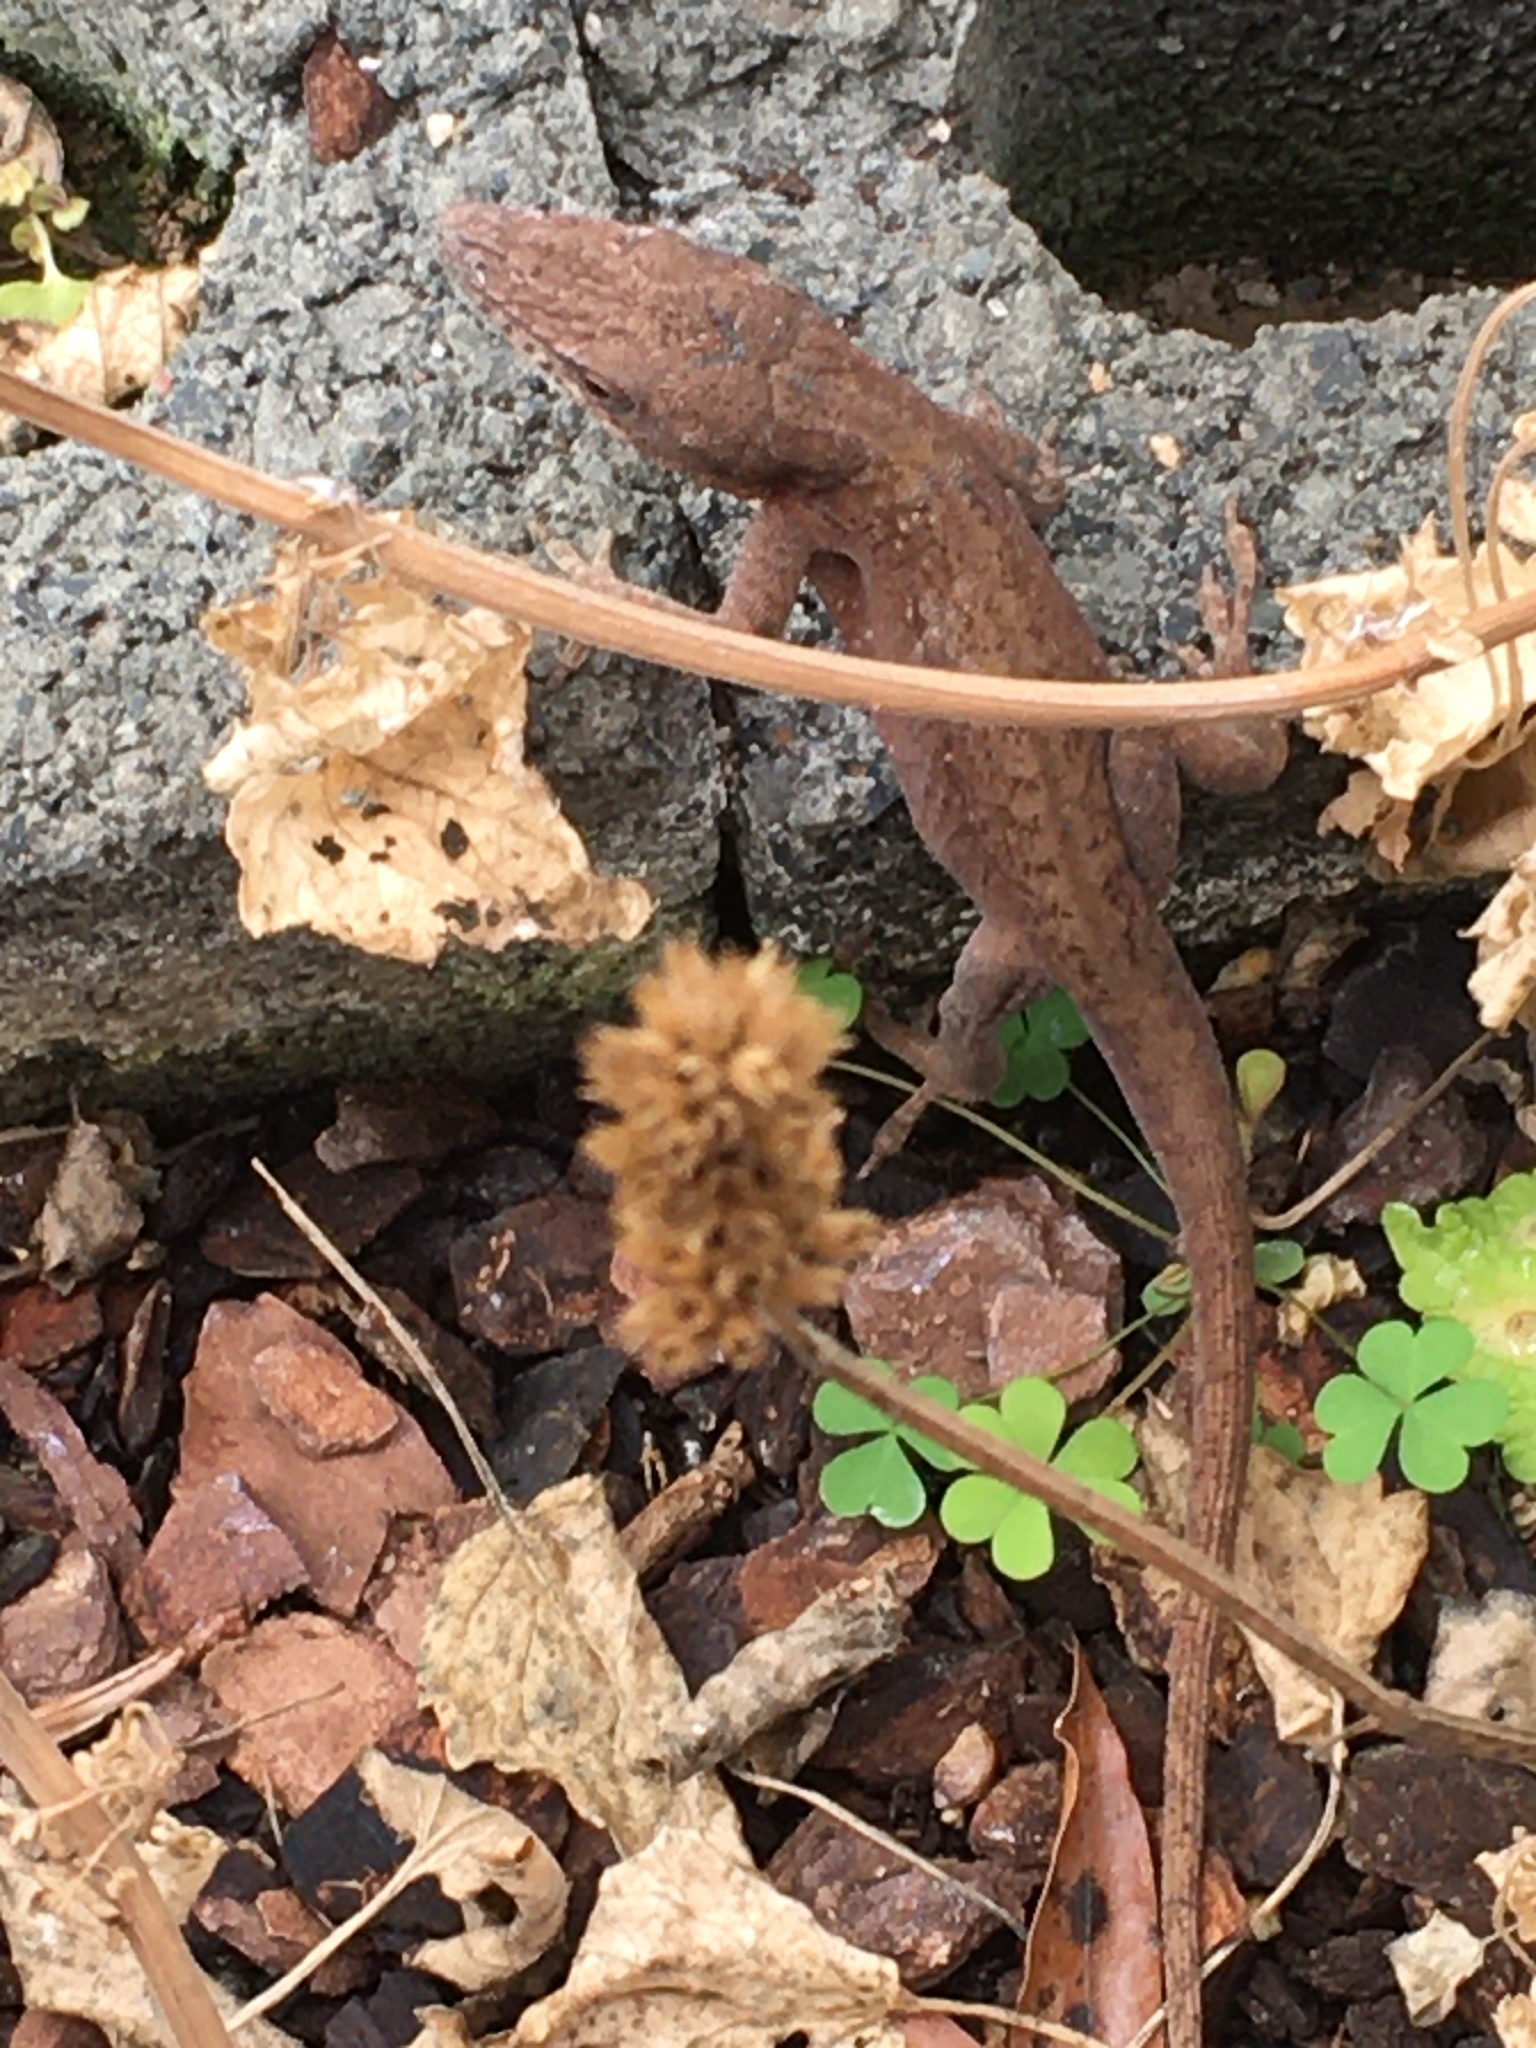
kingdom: Animalia
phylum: Chordata
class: Squamata
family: Dactyloidae
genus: Anolis
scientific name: Anolis carolinensis
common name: Green anole
